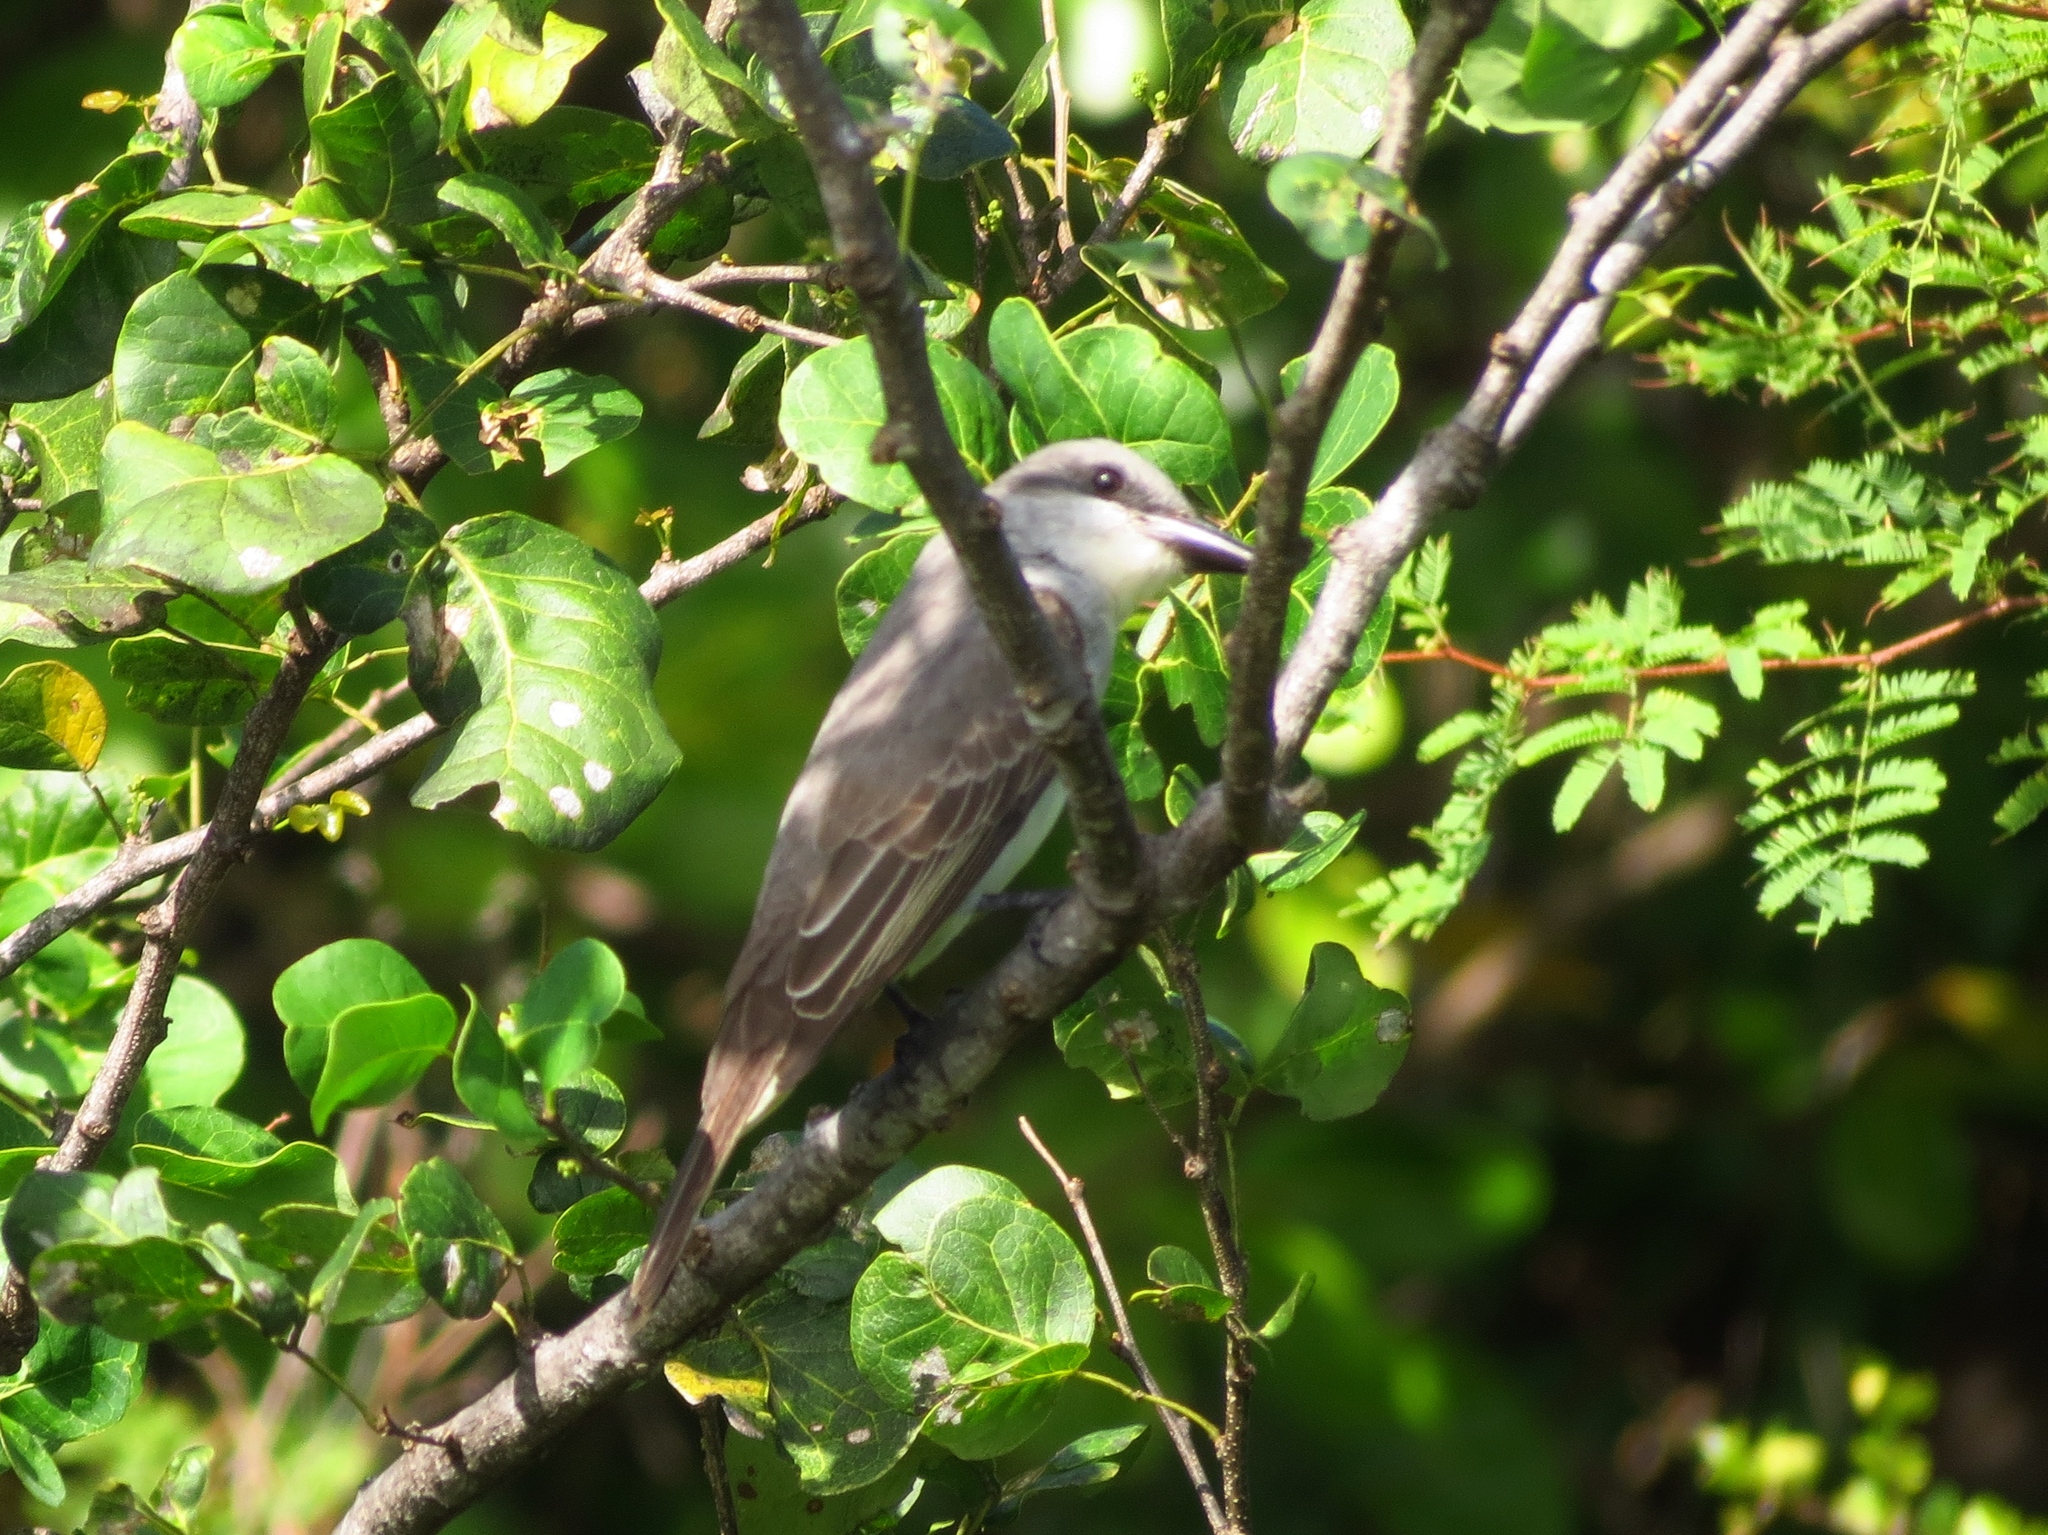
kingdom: Animalia
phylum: Chordata
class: Aves
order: Passeriformes
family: Tyrannidae
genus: Tyrannus
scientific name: Tyrannus dominicensis
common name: Gray kingbird
